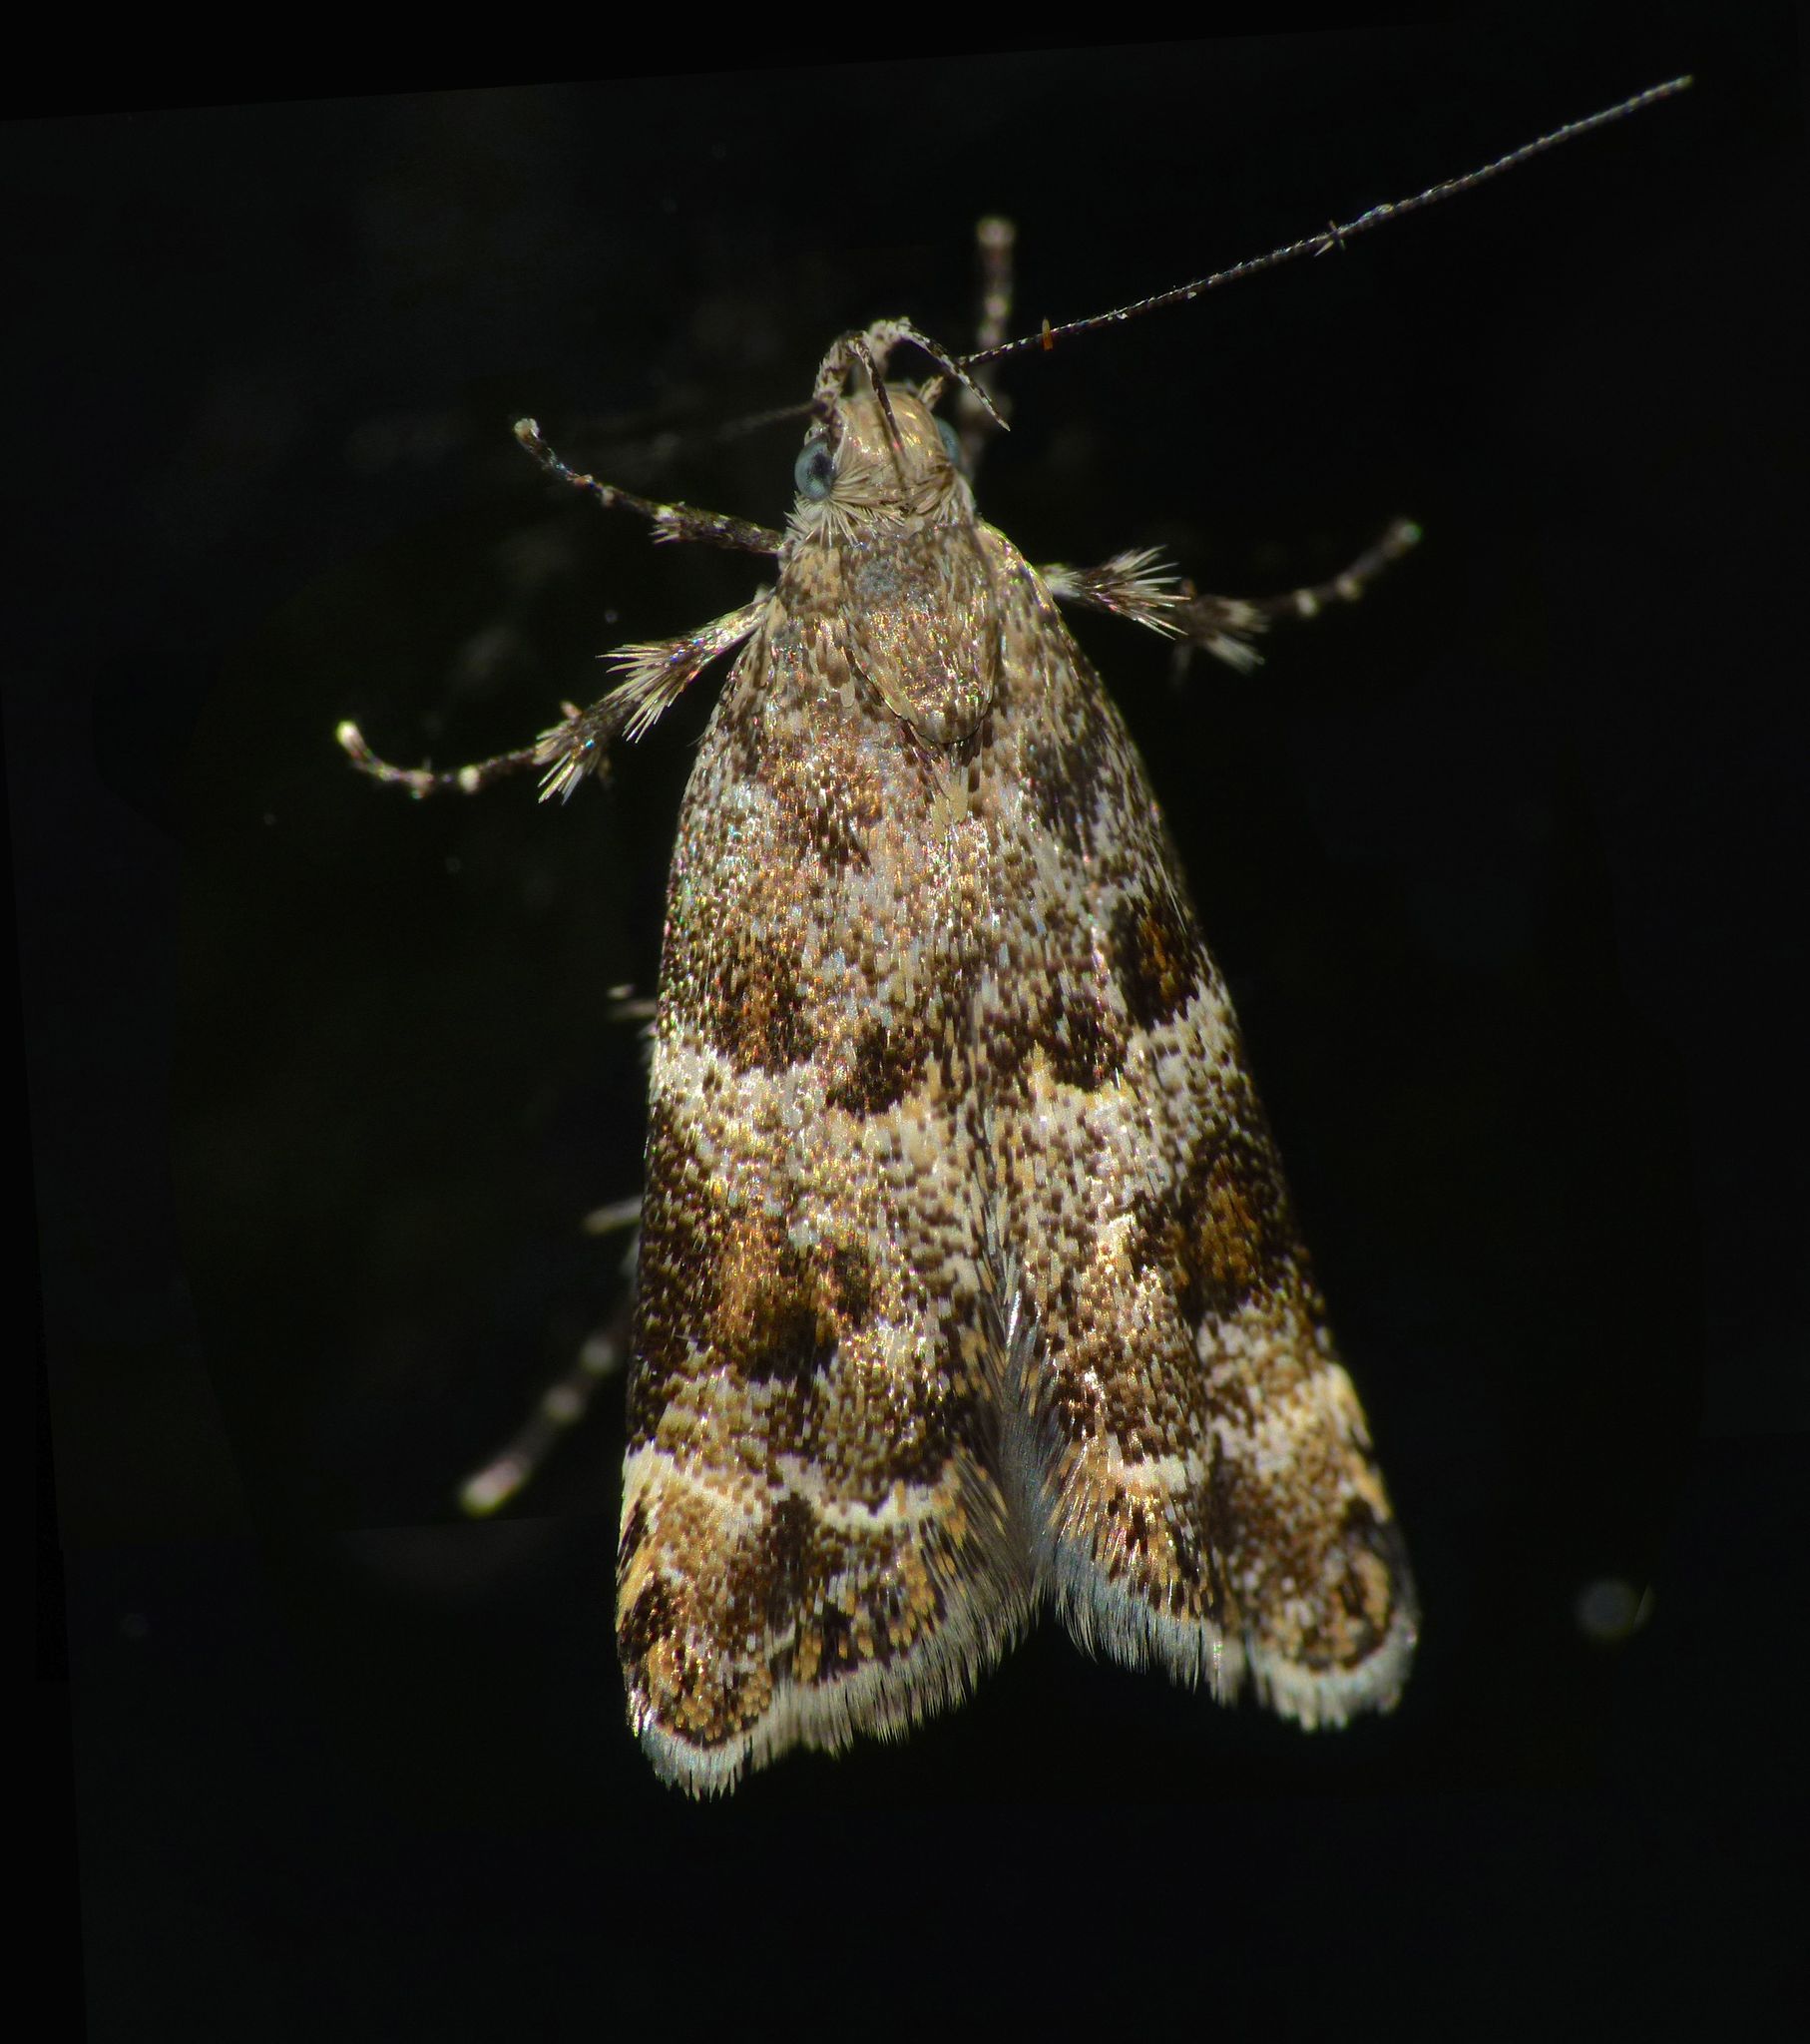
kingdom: Animalia
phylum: Arthropoda
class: Insecta
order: Lepidoptera
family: Oecophoridae
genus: Gymnobathra
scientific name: Gymnobathra omphalota
